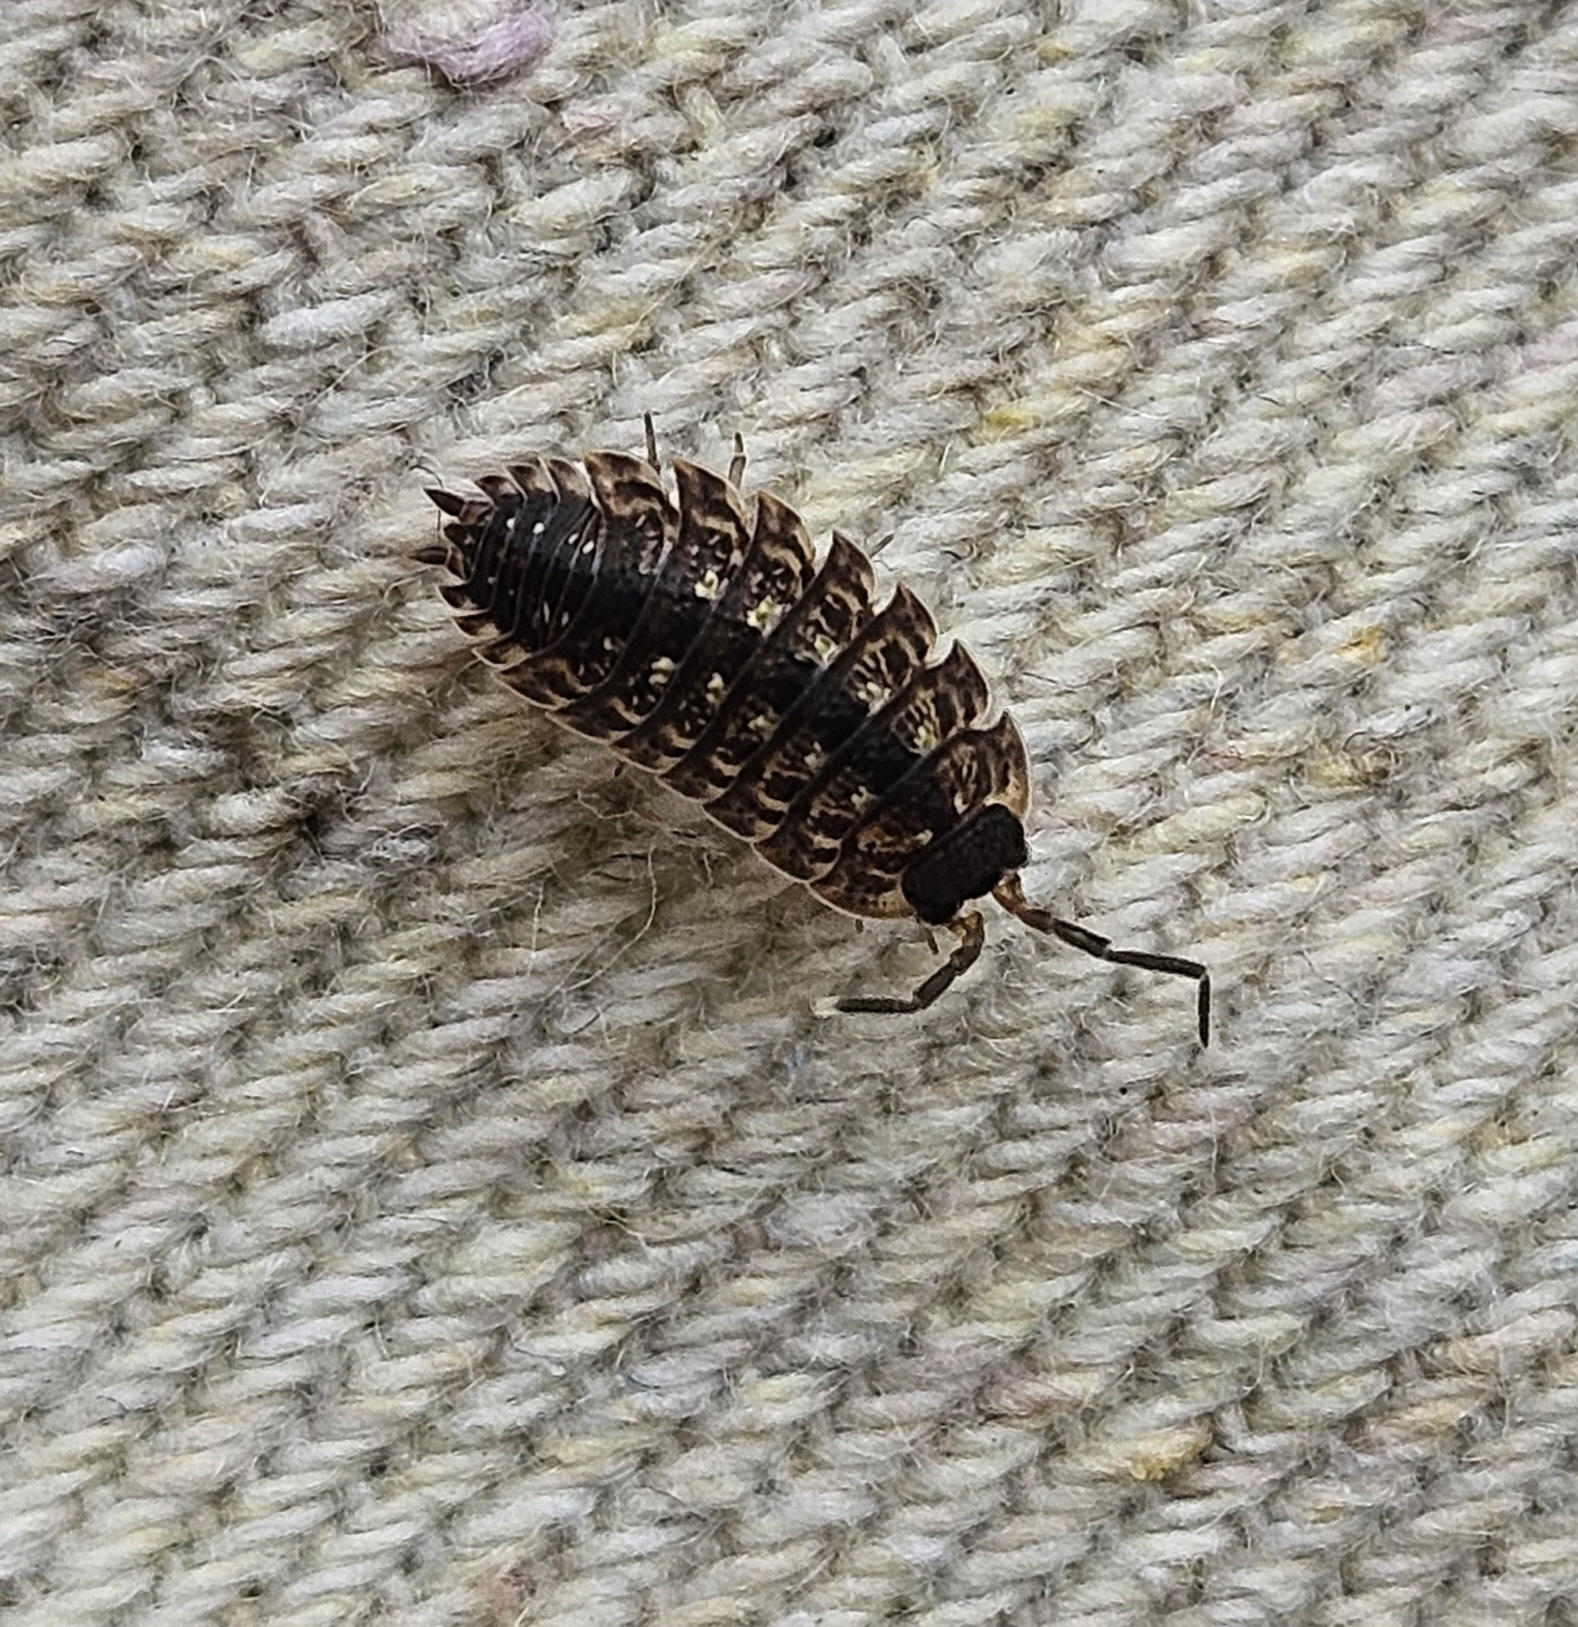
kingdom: Animalia
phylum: Arthropoda
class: Malacostraca
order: Isopoda
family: Porcellionidae
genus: Porcellio
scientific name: Porcellio spinicornis
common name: Painted woodlouse
